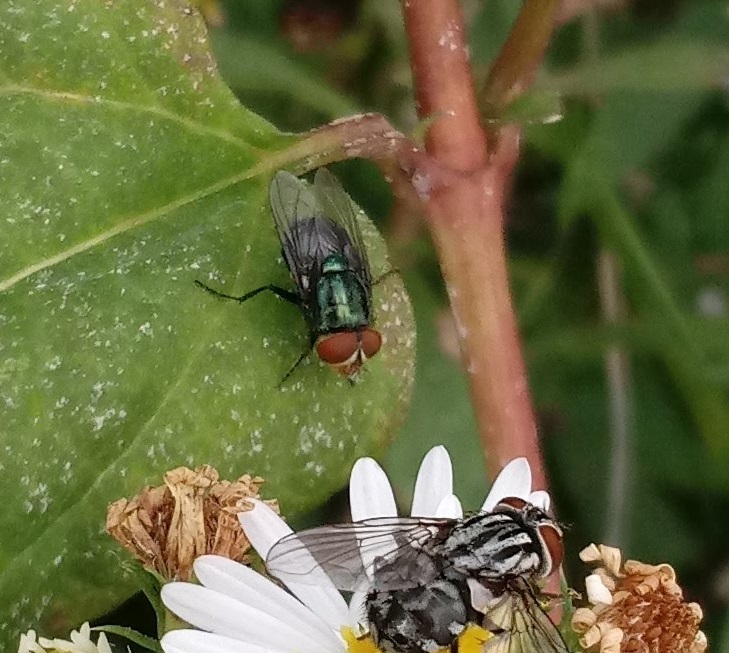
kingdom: Animalia
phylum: Arthropoda
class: Insecta
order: Diptera
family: Calliphoridae
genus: Cochliomyia
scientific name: Cochliomyia macellaria
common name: Secondary screwworm
